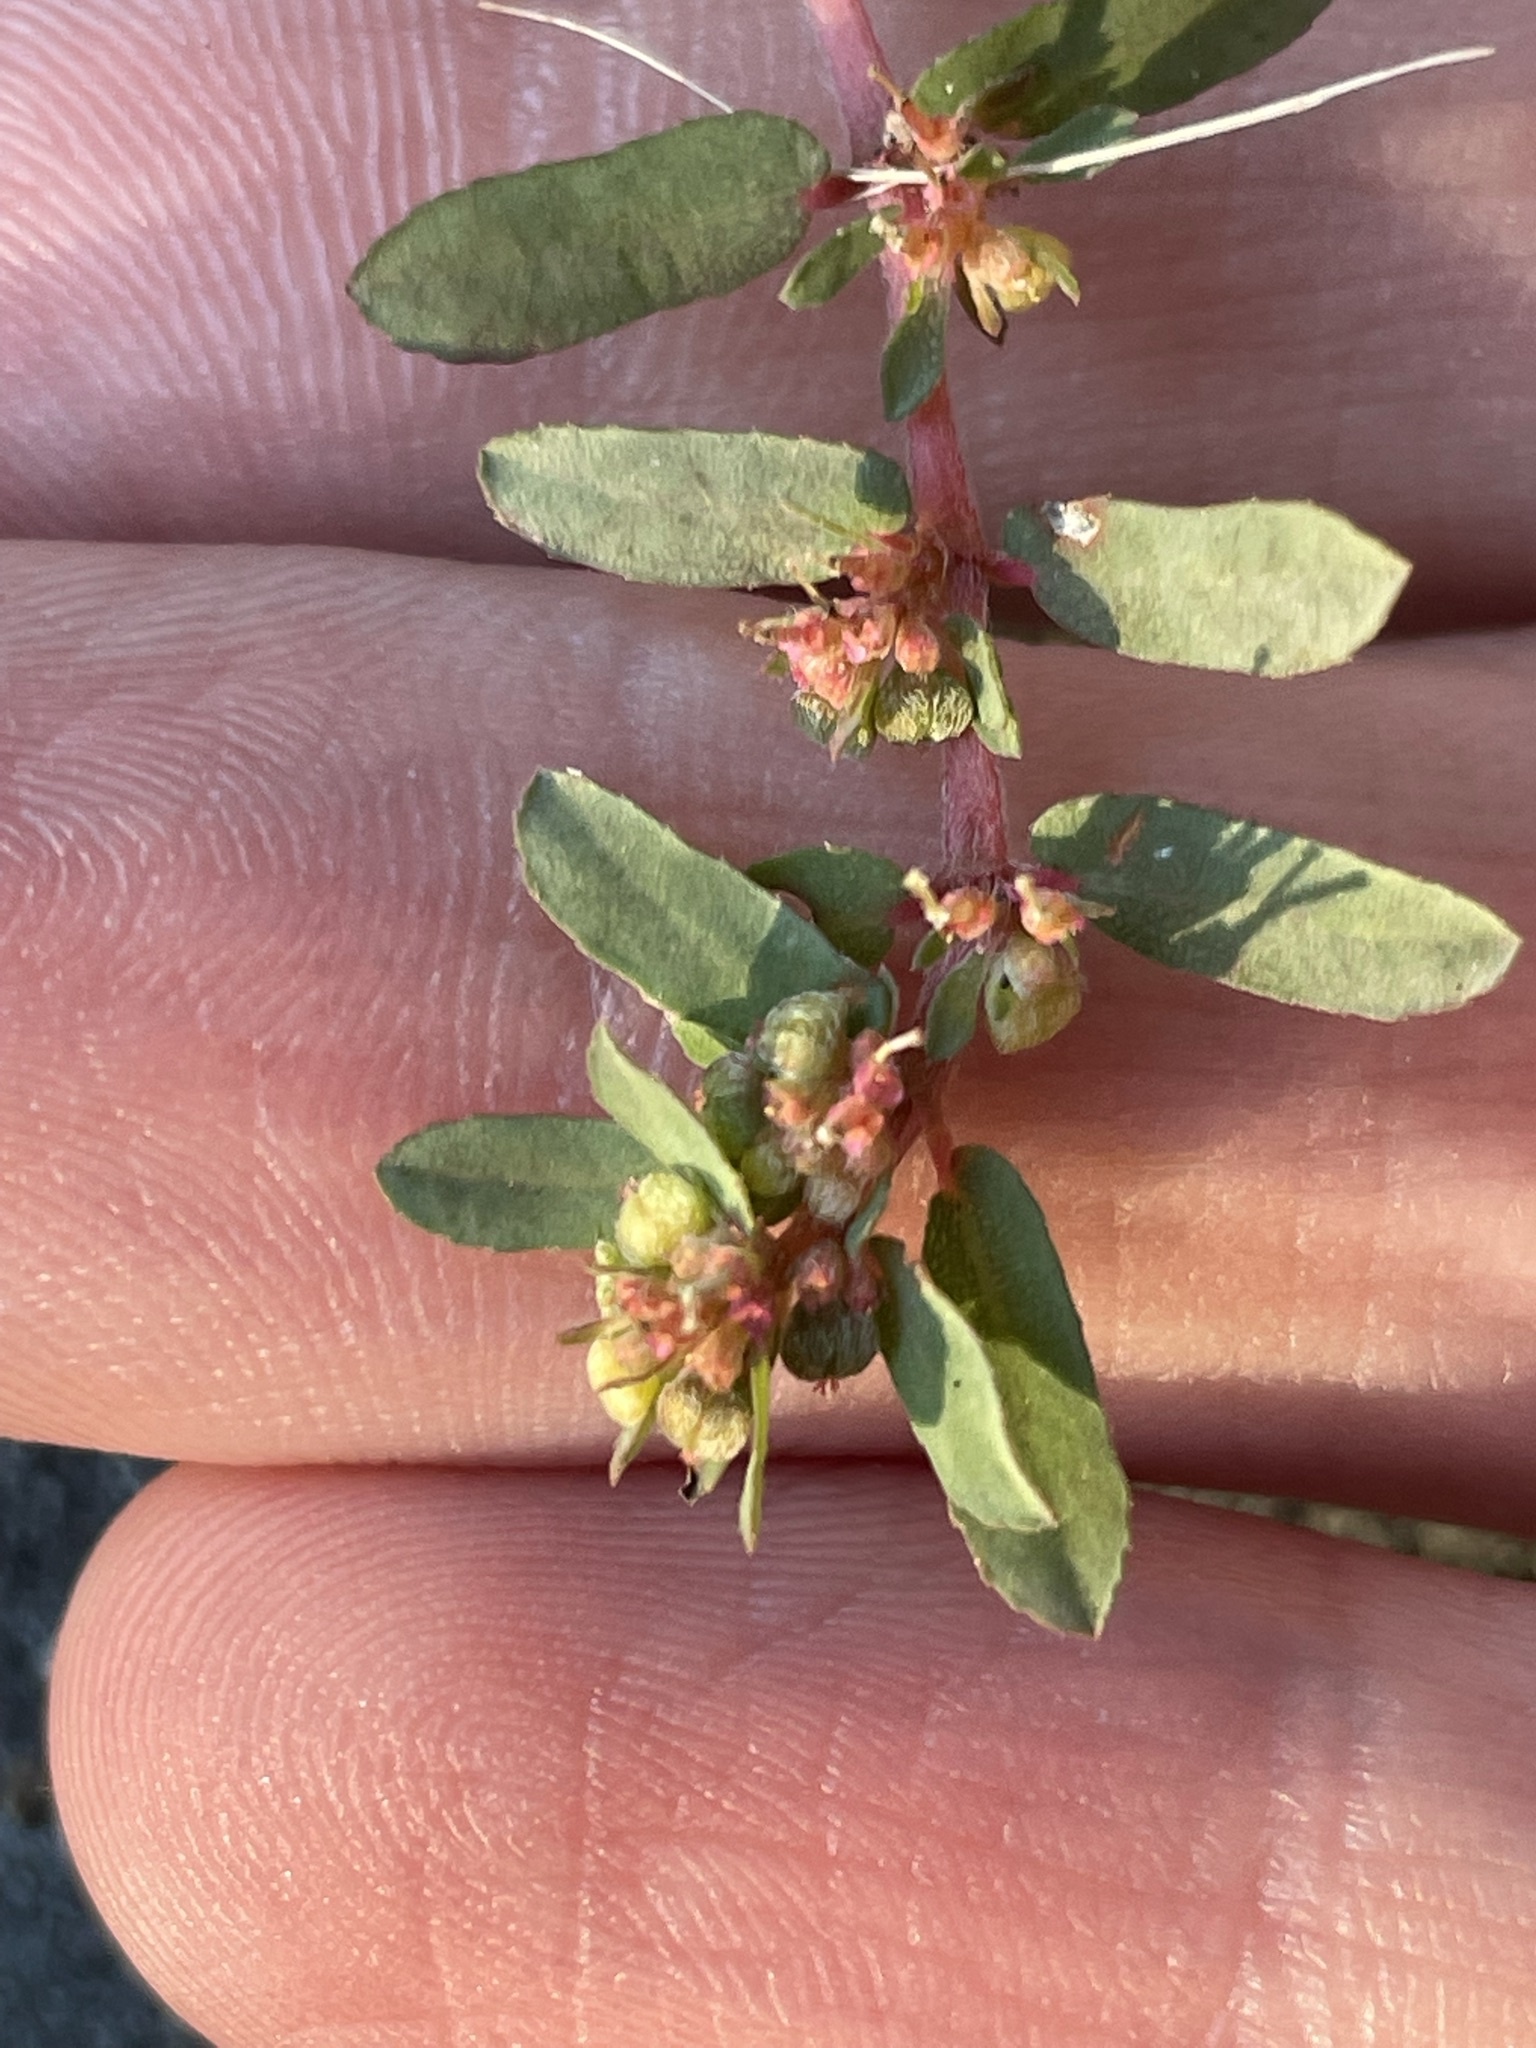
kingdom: Plantae
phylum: Tracheophyta
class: Magnoliopsida
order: Malpighiales
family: Euphorbiaceae
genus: Euphorbia
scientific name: Euphorbia maculata
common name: Spotted spurge
